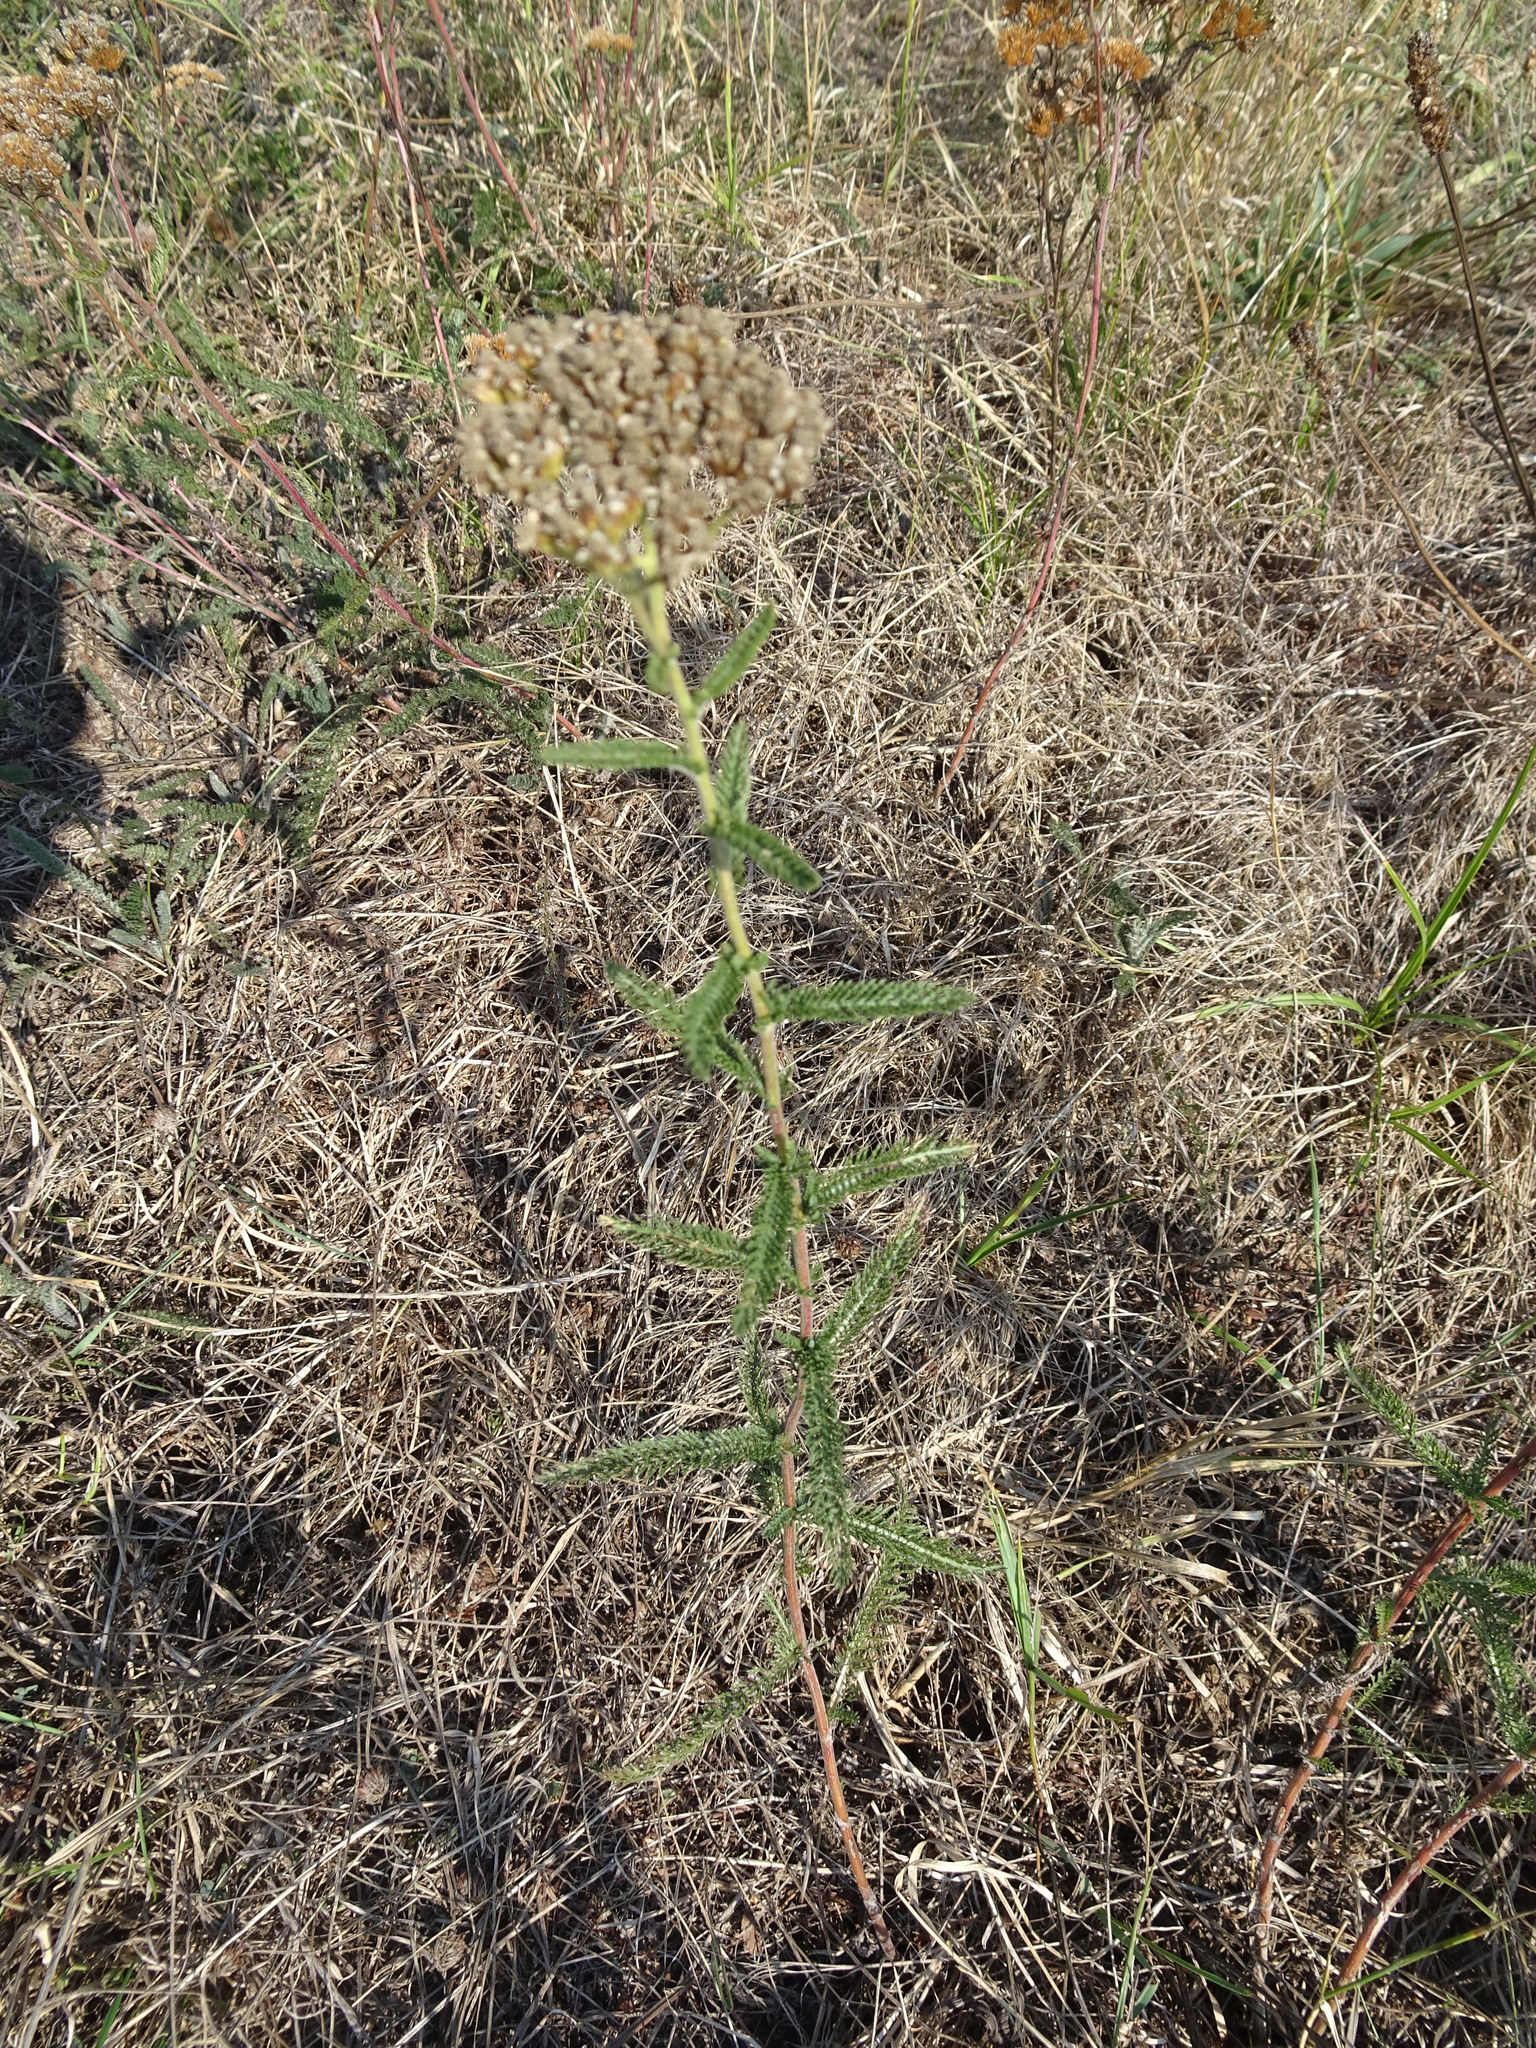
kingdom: Plantae
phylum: Tracheophyta
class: Magnoliopsida
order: Asterales
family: Asteraceae
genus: Achillea
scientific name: Achillea millefolium
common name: Yarrow
